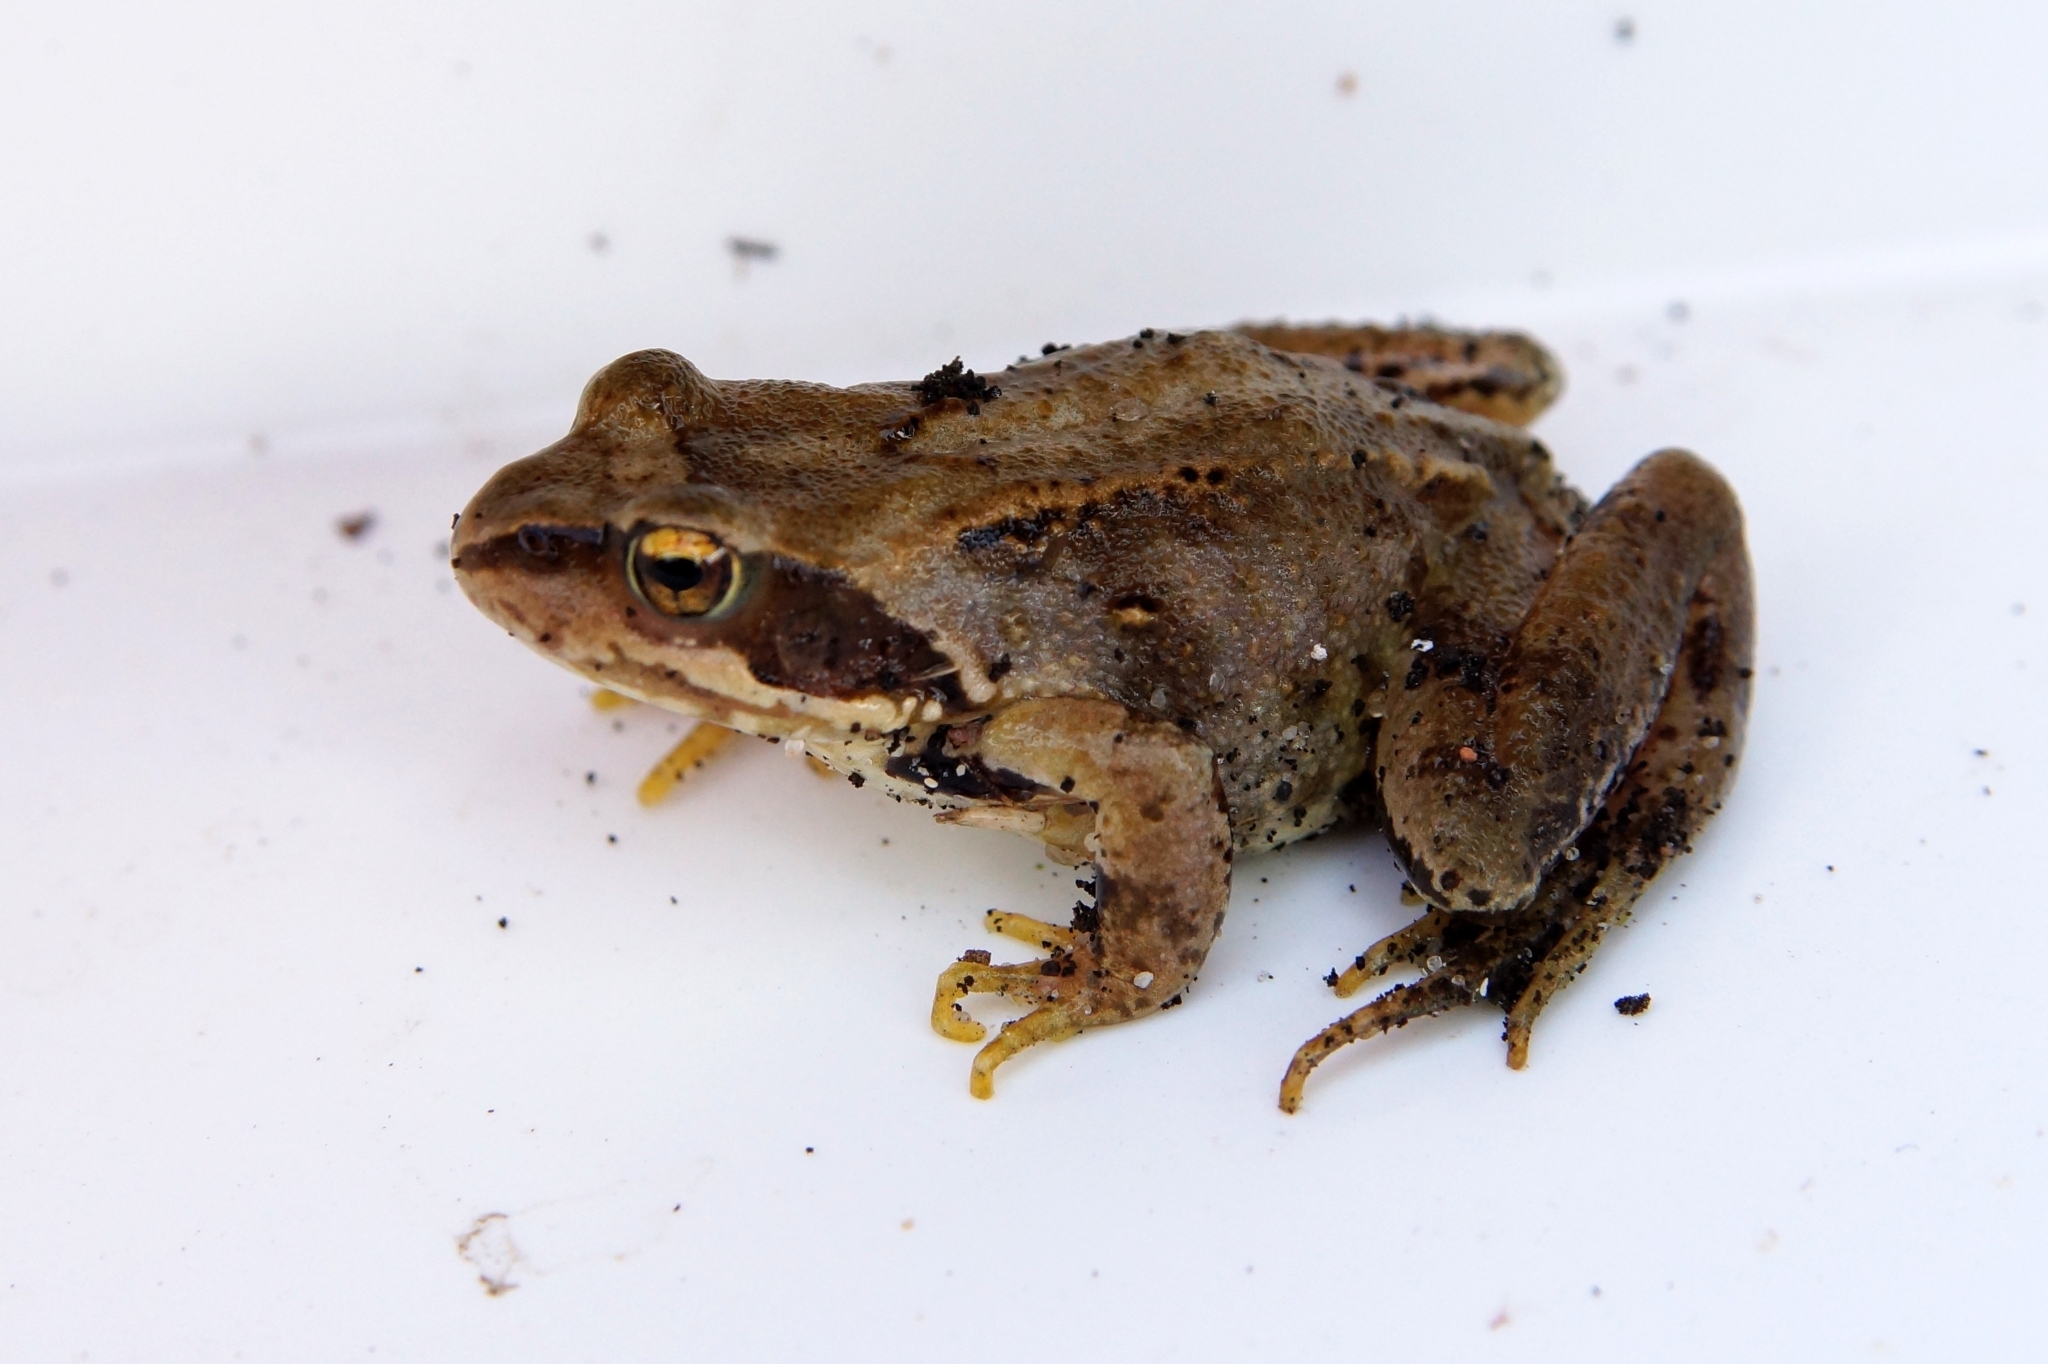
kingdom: Animalia
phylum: Chordata
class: Amphibia
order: Anura
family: Ranidae
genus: Rana
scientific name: Rana temporaria
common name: Common frog
